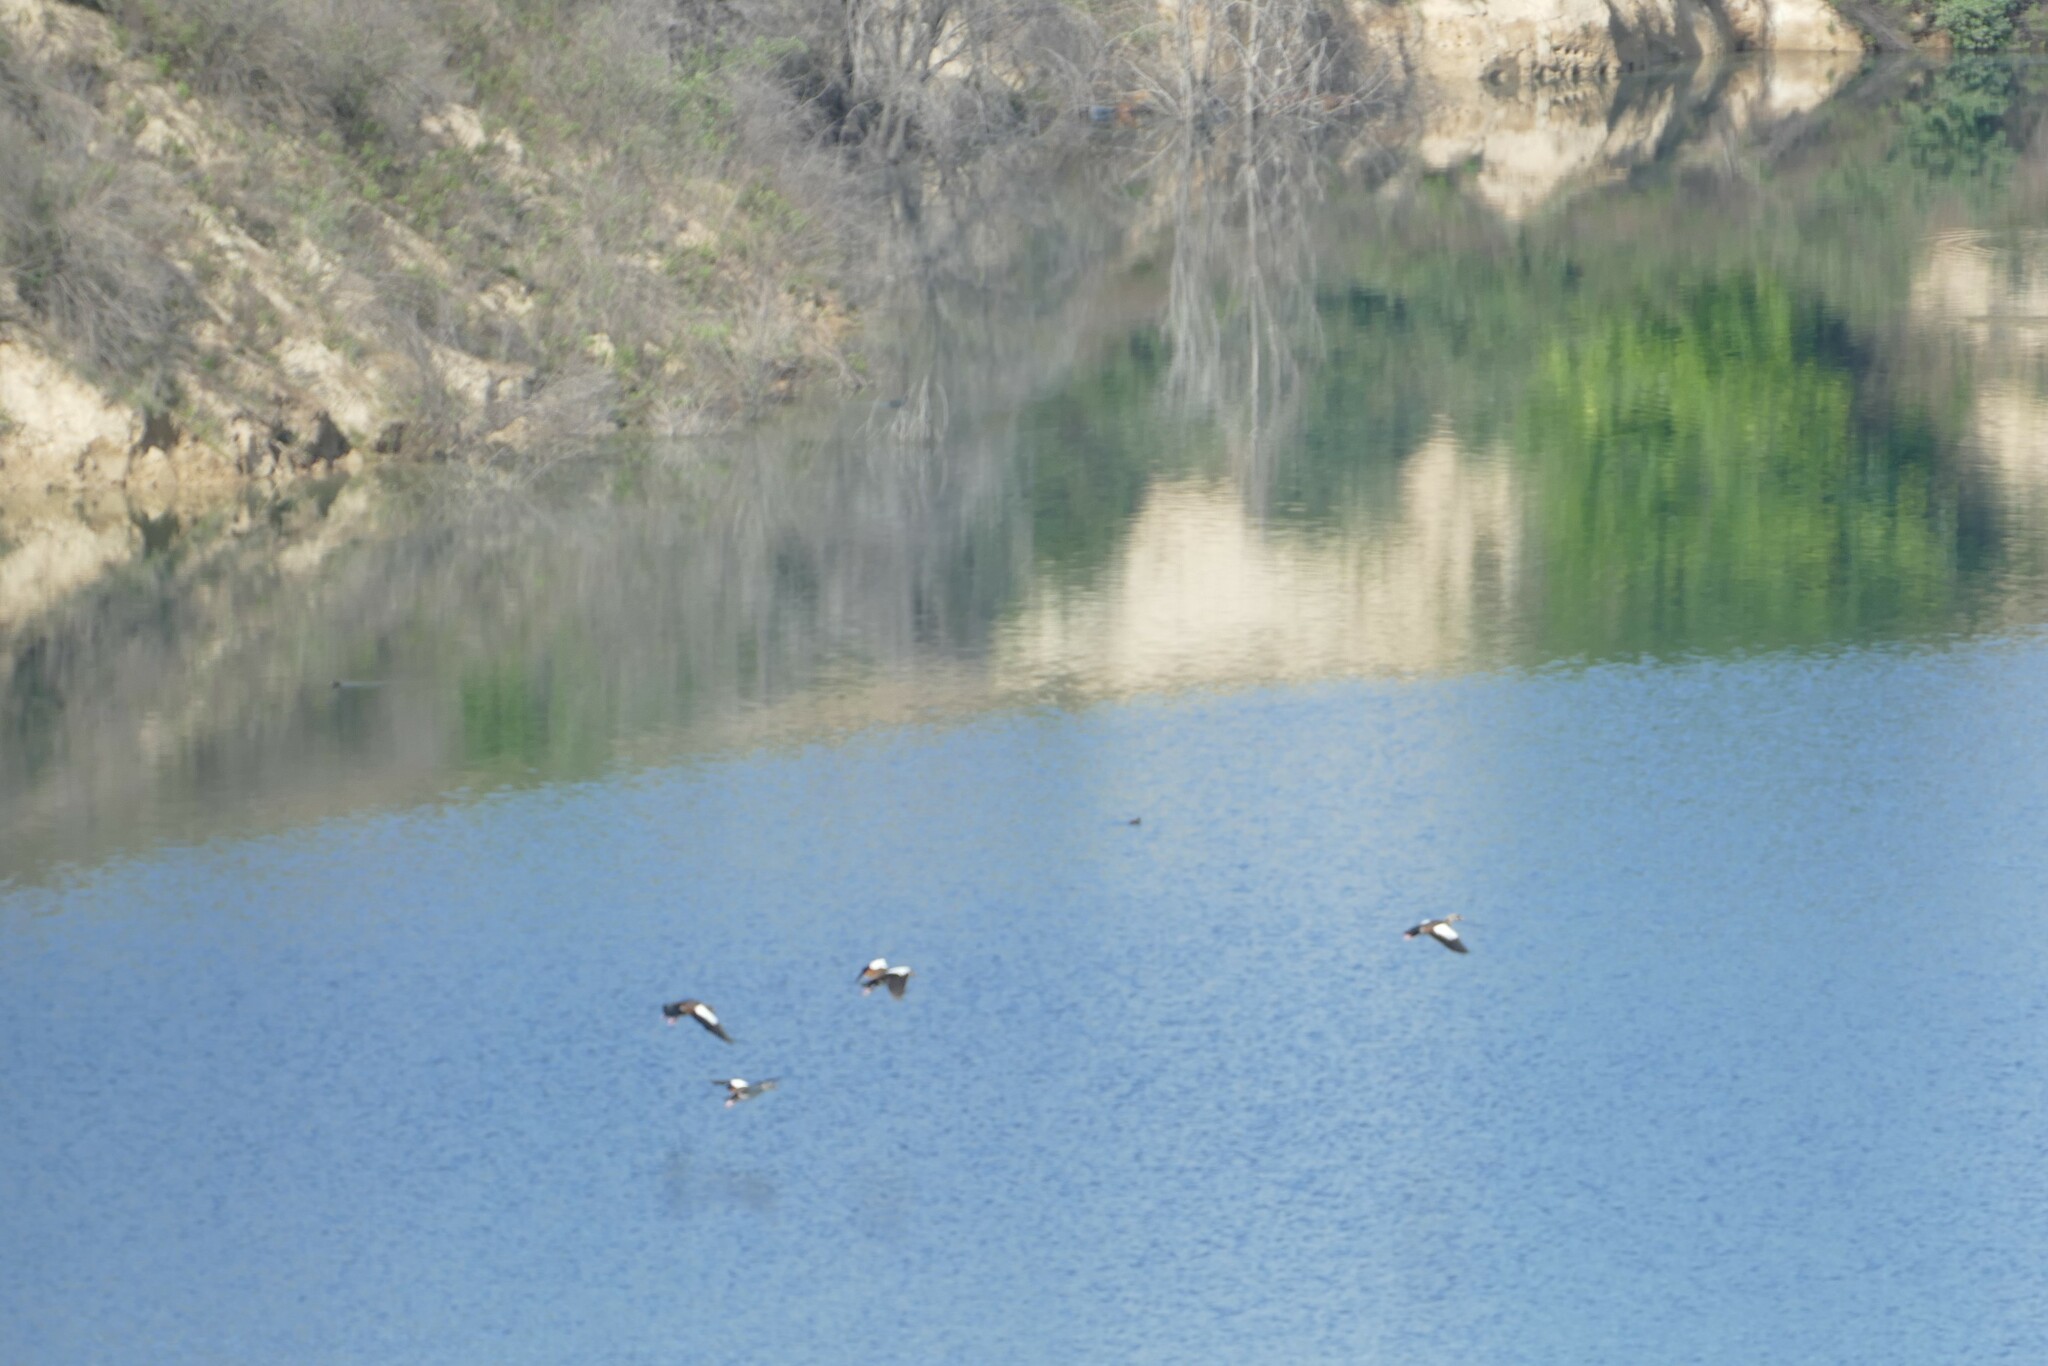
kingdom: Animalia
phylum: Chordata
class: Aves
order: Anseriformes
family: Anatidae
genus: Alopochen
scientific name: Alopochen aegyptiaca
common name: Egyptian goose
